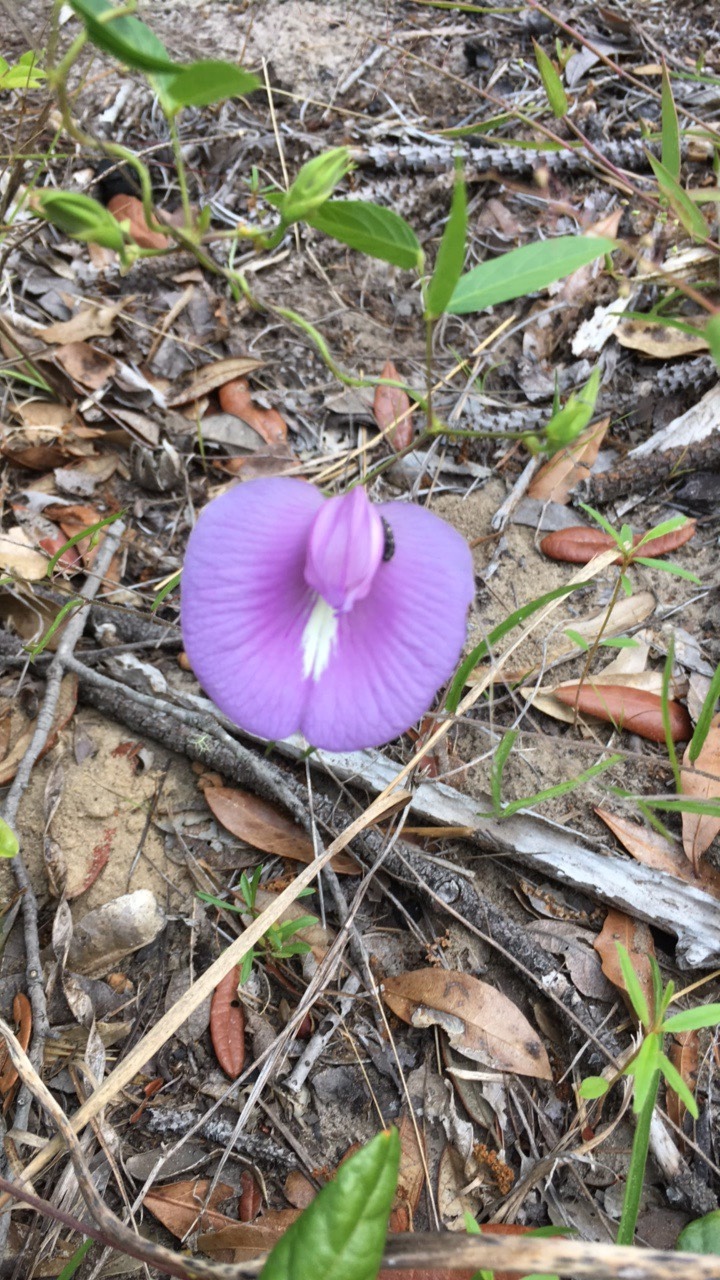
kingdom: Plantae
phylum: Tracheophyta
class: Magnoliopsida
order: Fabales
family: Fabaceae
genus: Centrosema
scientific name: Centrosema virginianum
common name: Butterfly-pea
